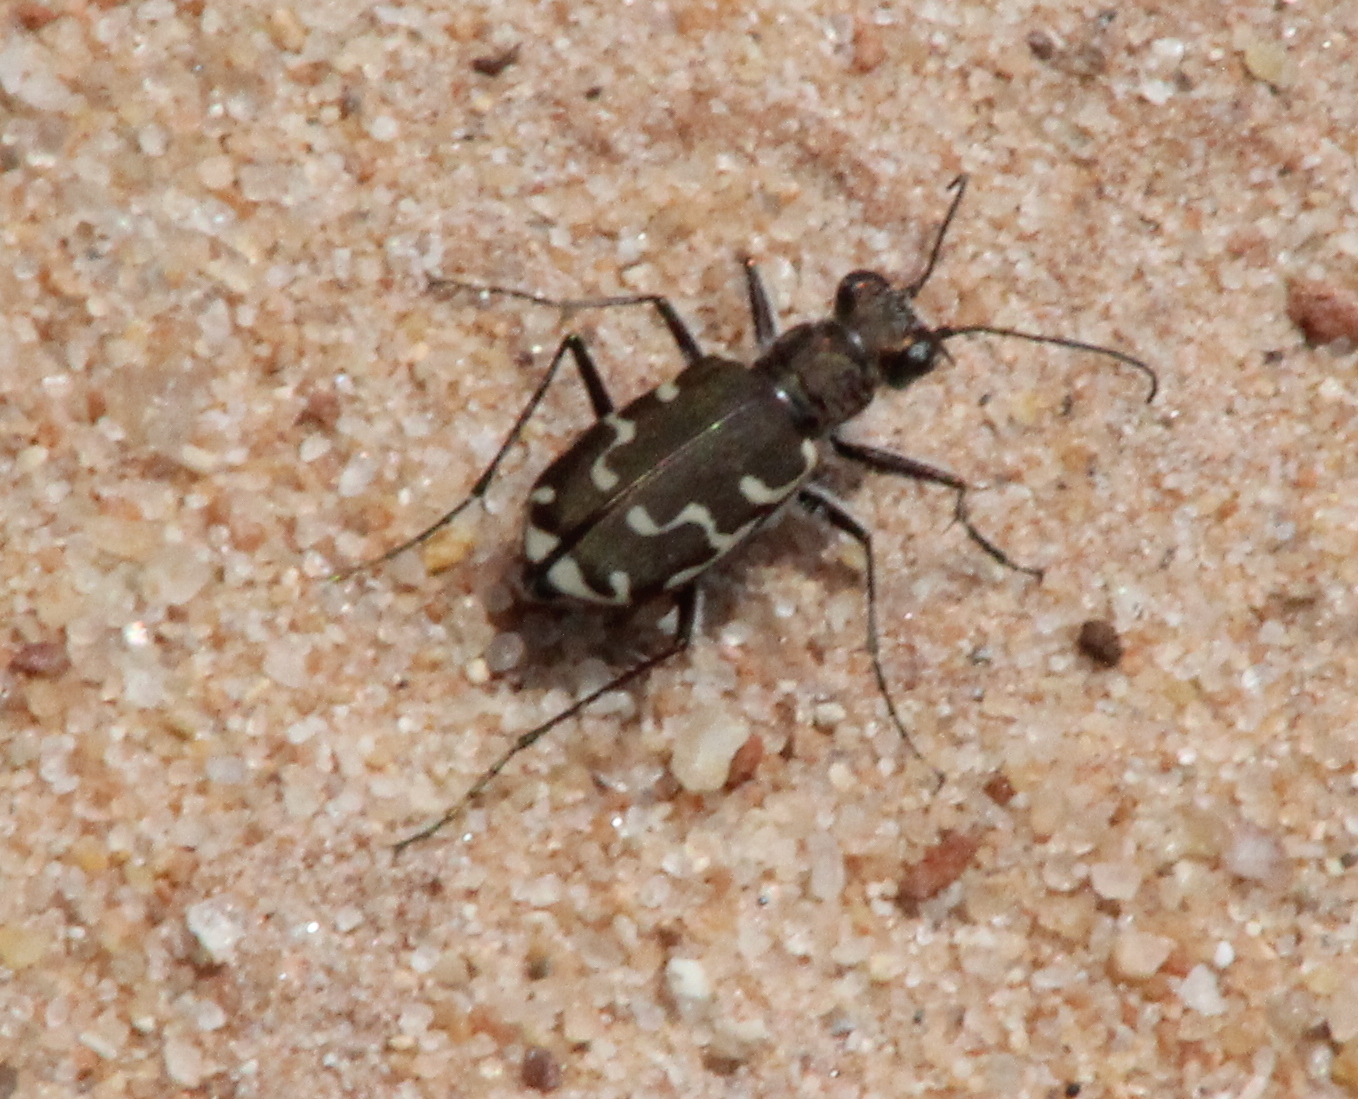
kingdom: Animalia
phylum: Arthropoda
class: Insecta
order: Coleoptera
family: Carabidae
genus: Cicindela
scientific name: Cicindela repanda
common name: Bronzed tiger beetle
